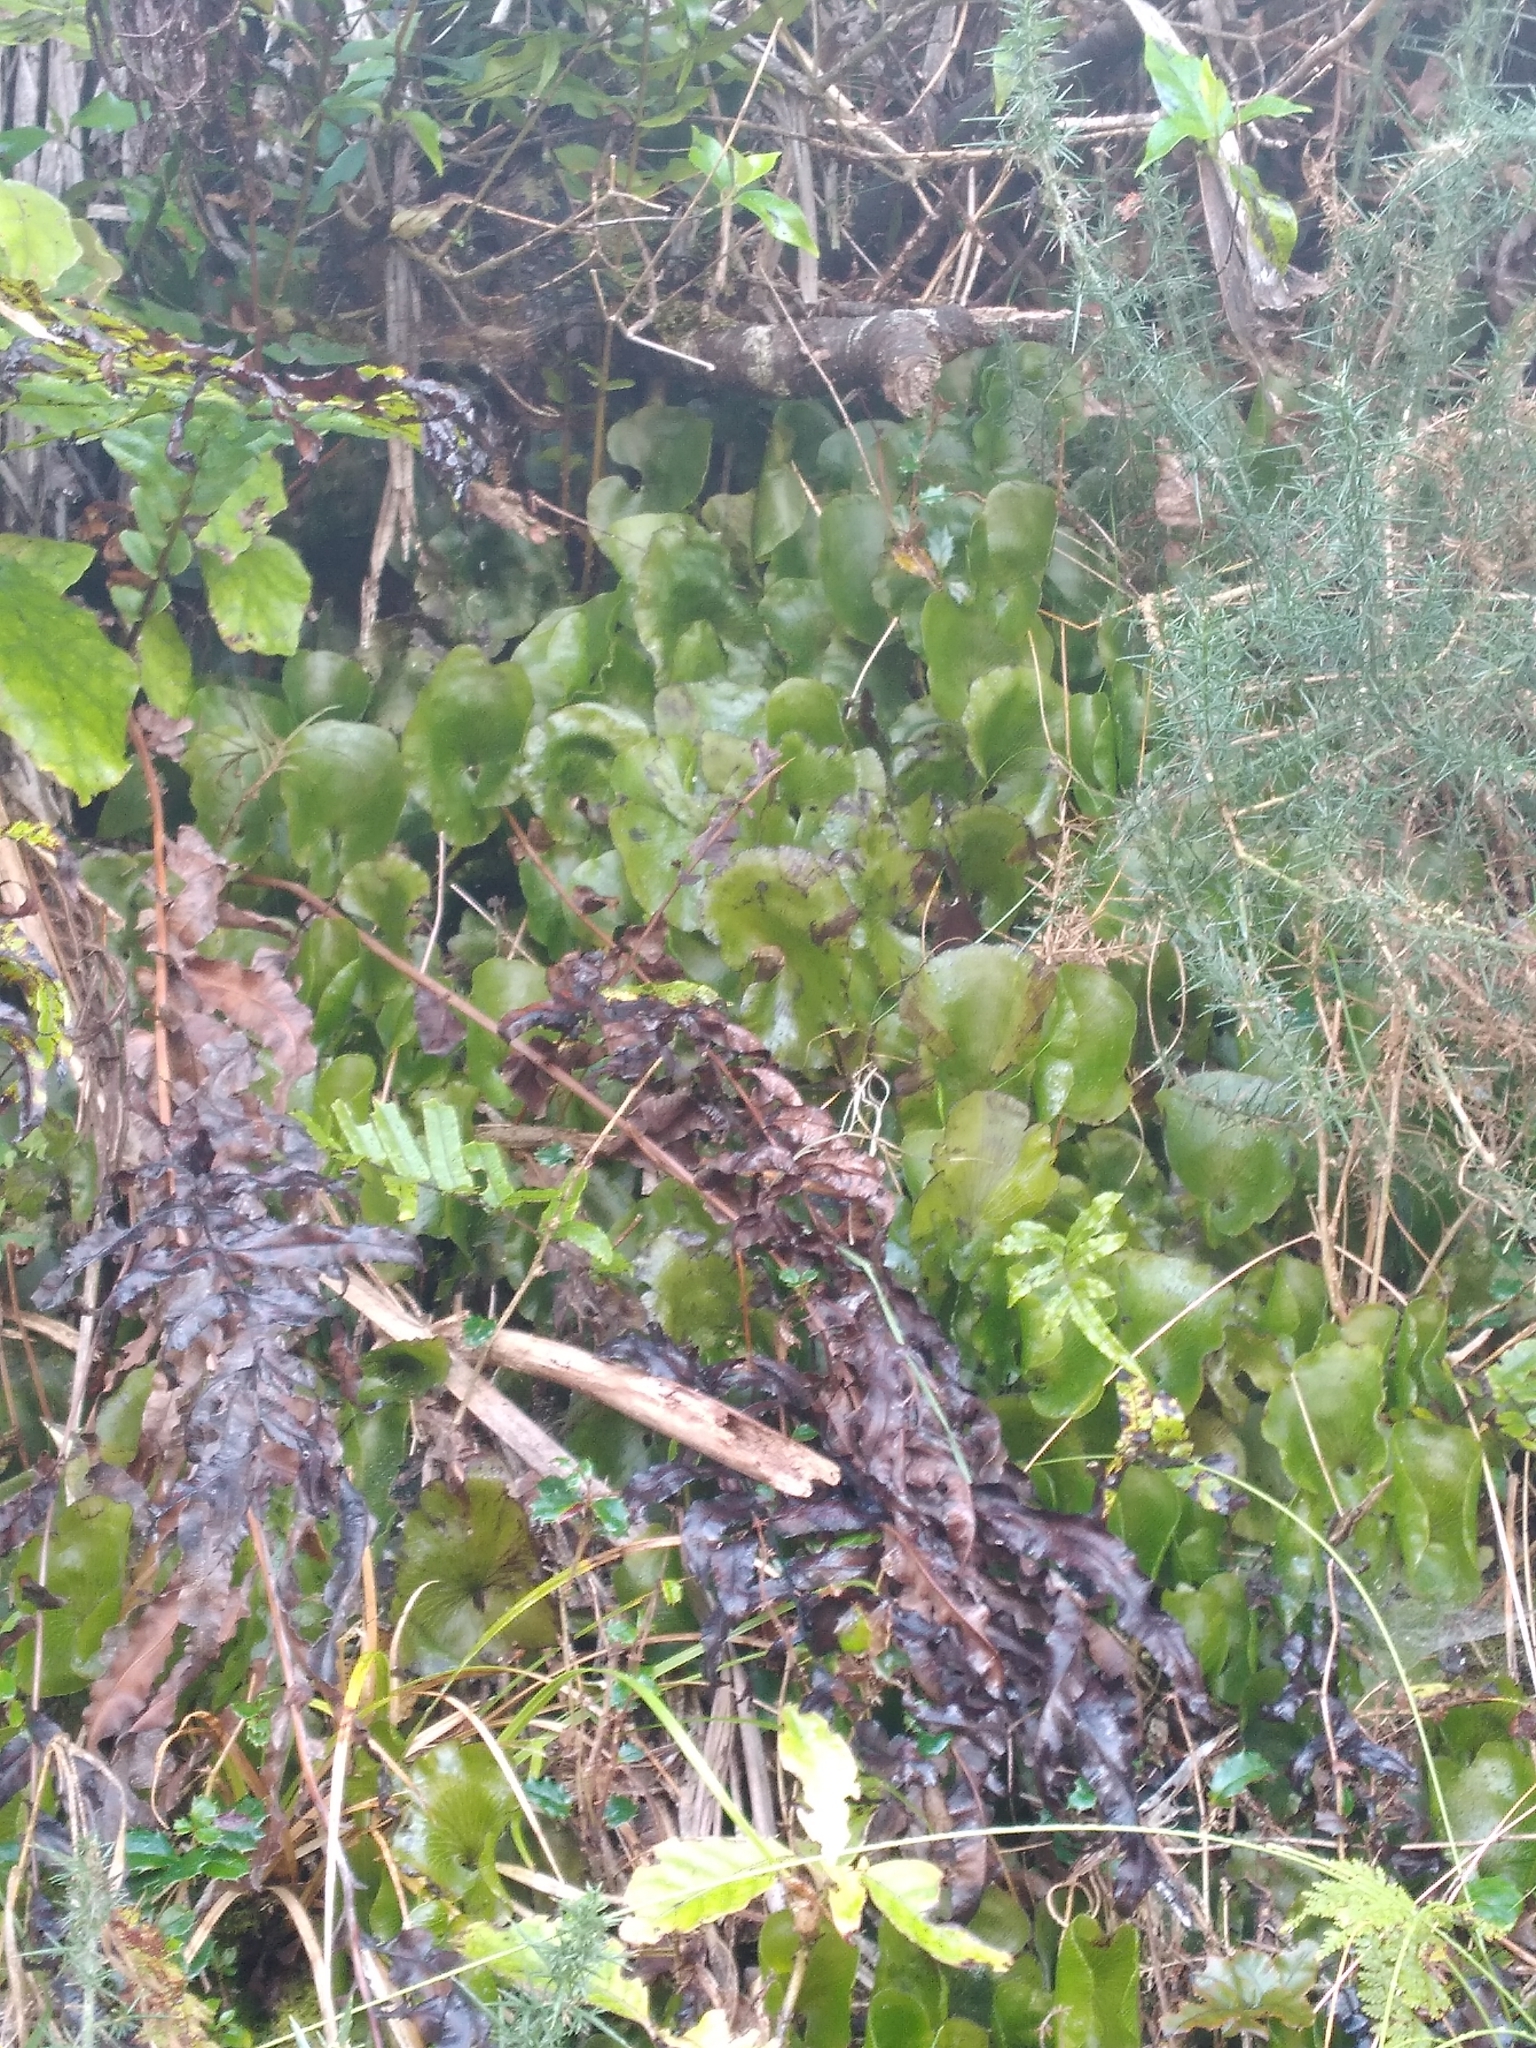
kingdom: Plantae
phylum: Tracheophyta
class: Polypodiopsida
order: Hymenophyllales
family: Hymenophyllaceae
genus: Hymenophyllum
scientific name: Hymenophyllum nephrophyllum
